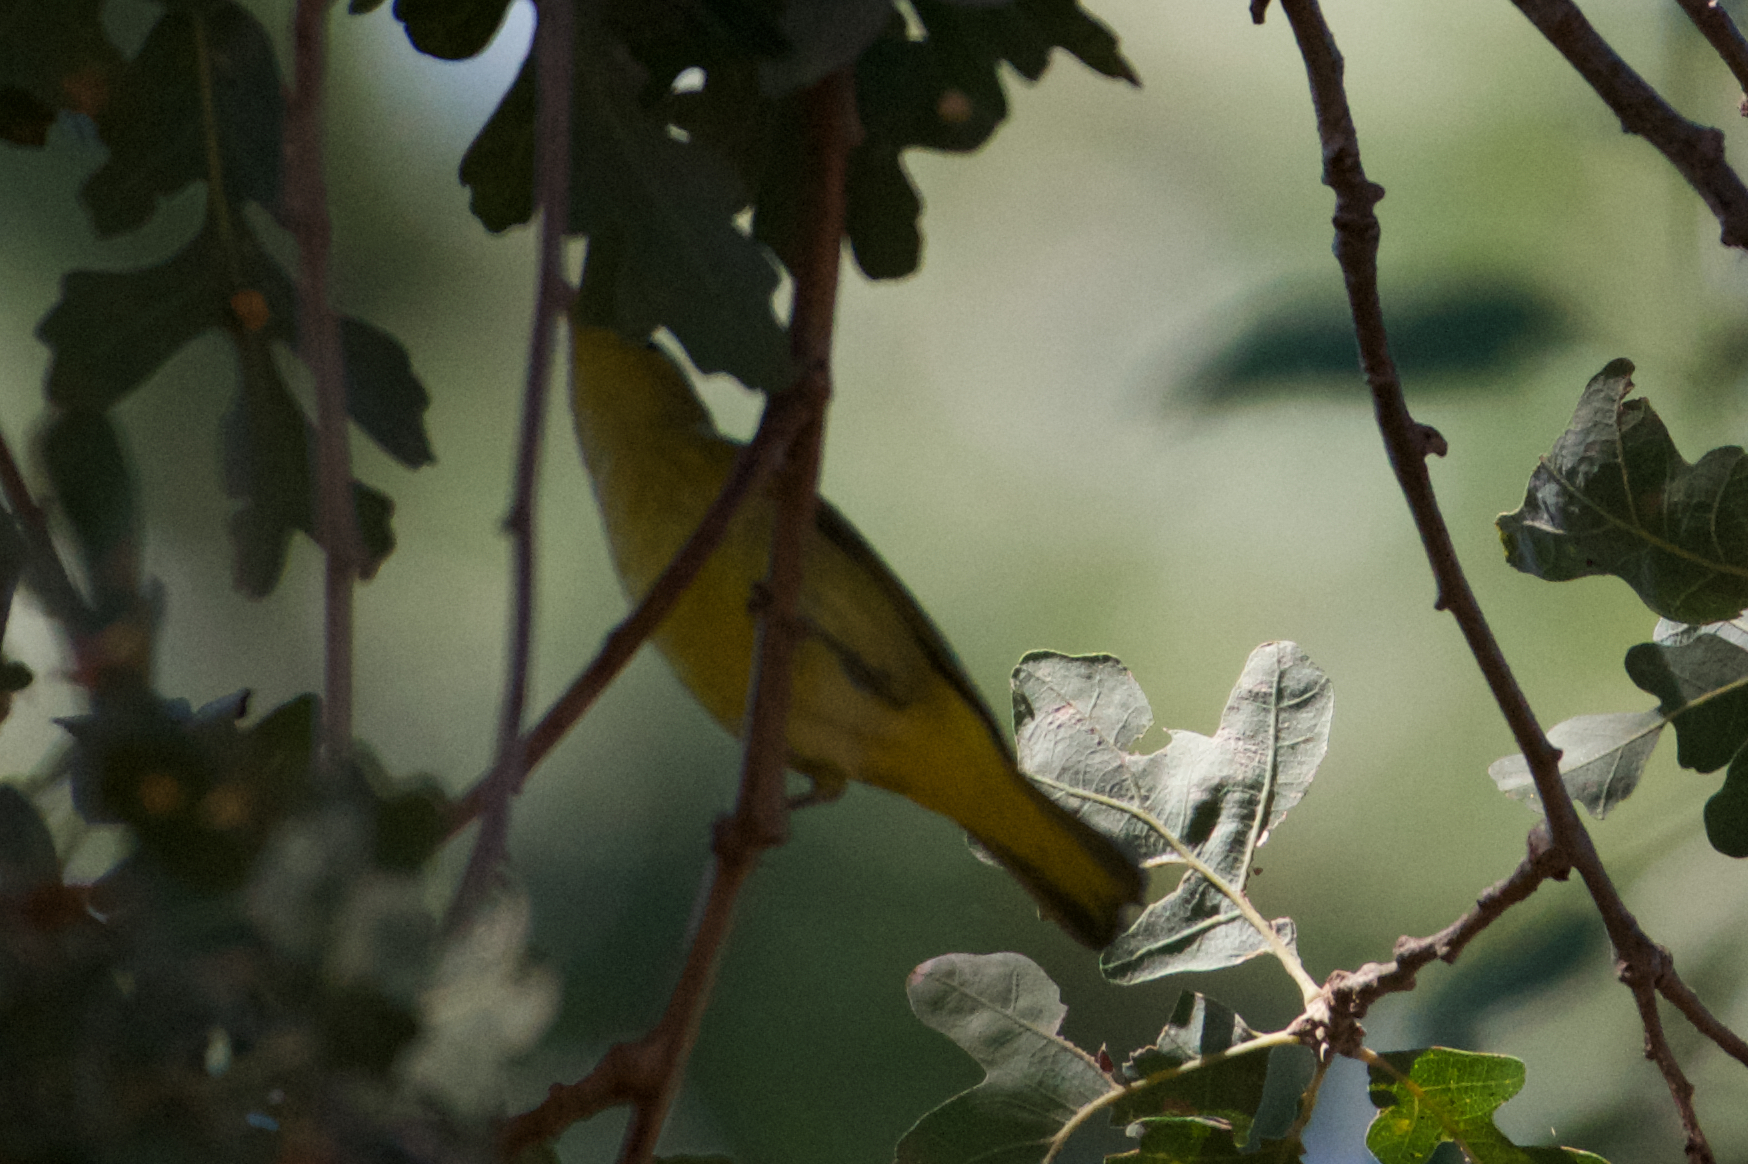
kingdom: Animalia
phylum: Chordata
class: Aves
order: Passeriformes
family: Parulidae
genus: Setophaga
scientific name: Setophaga petechia
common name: Yellow warbler
